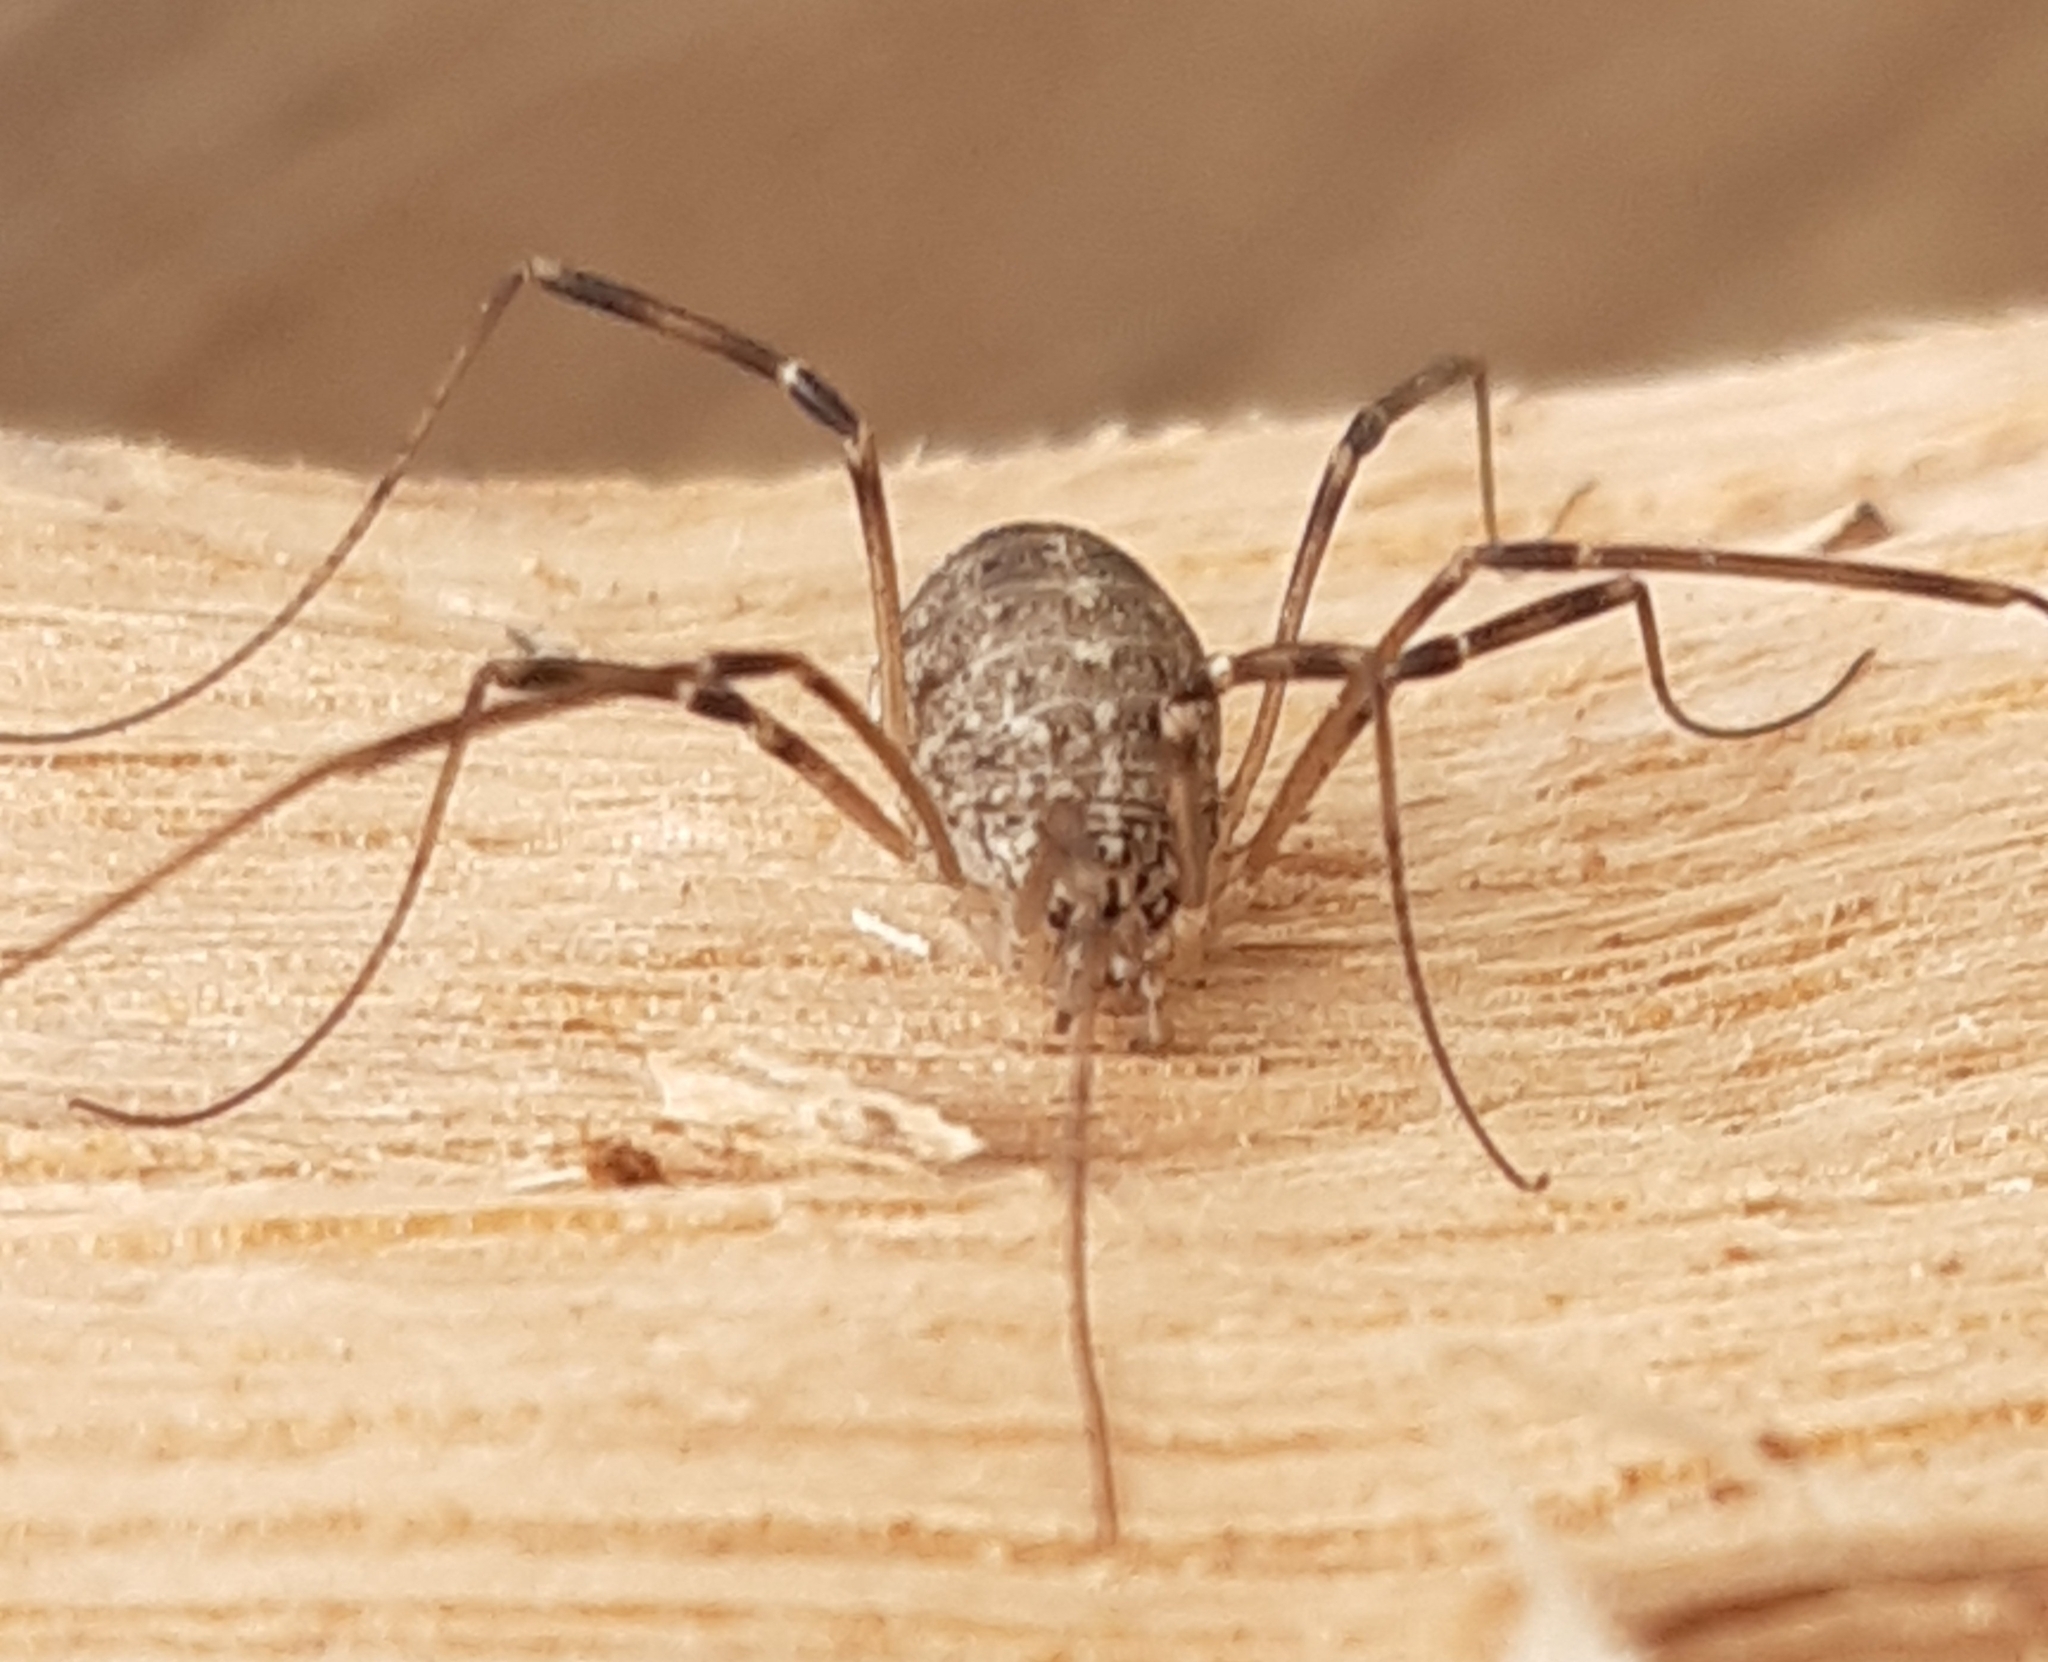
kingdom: Animalia
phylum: Arthropoda
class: Arachnida
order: Opiliones
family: Phalangiidae
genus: Opilio
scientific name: Opilio saxatilis
